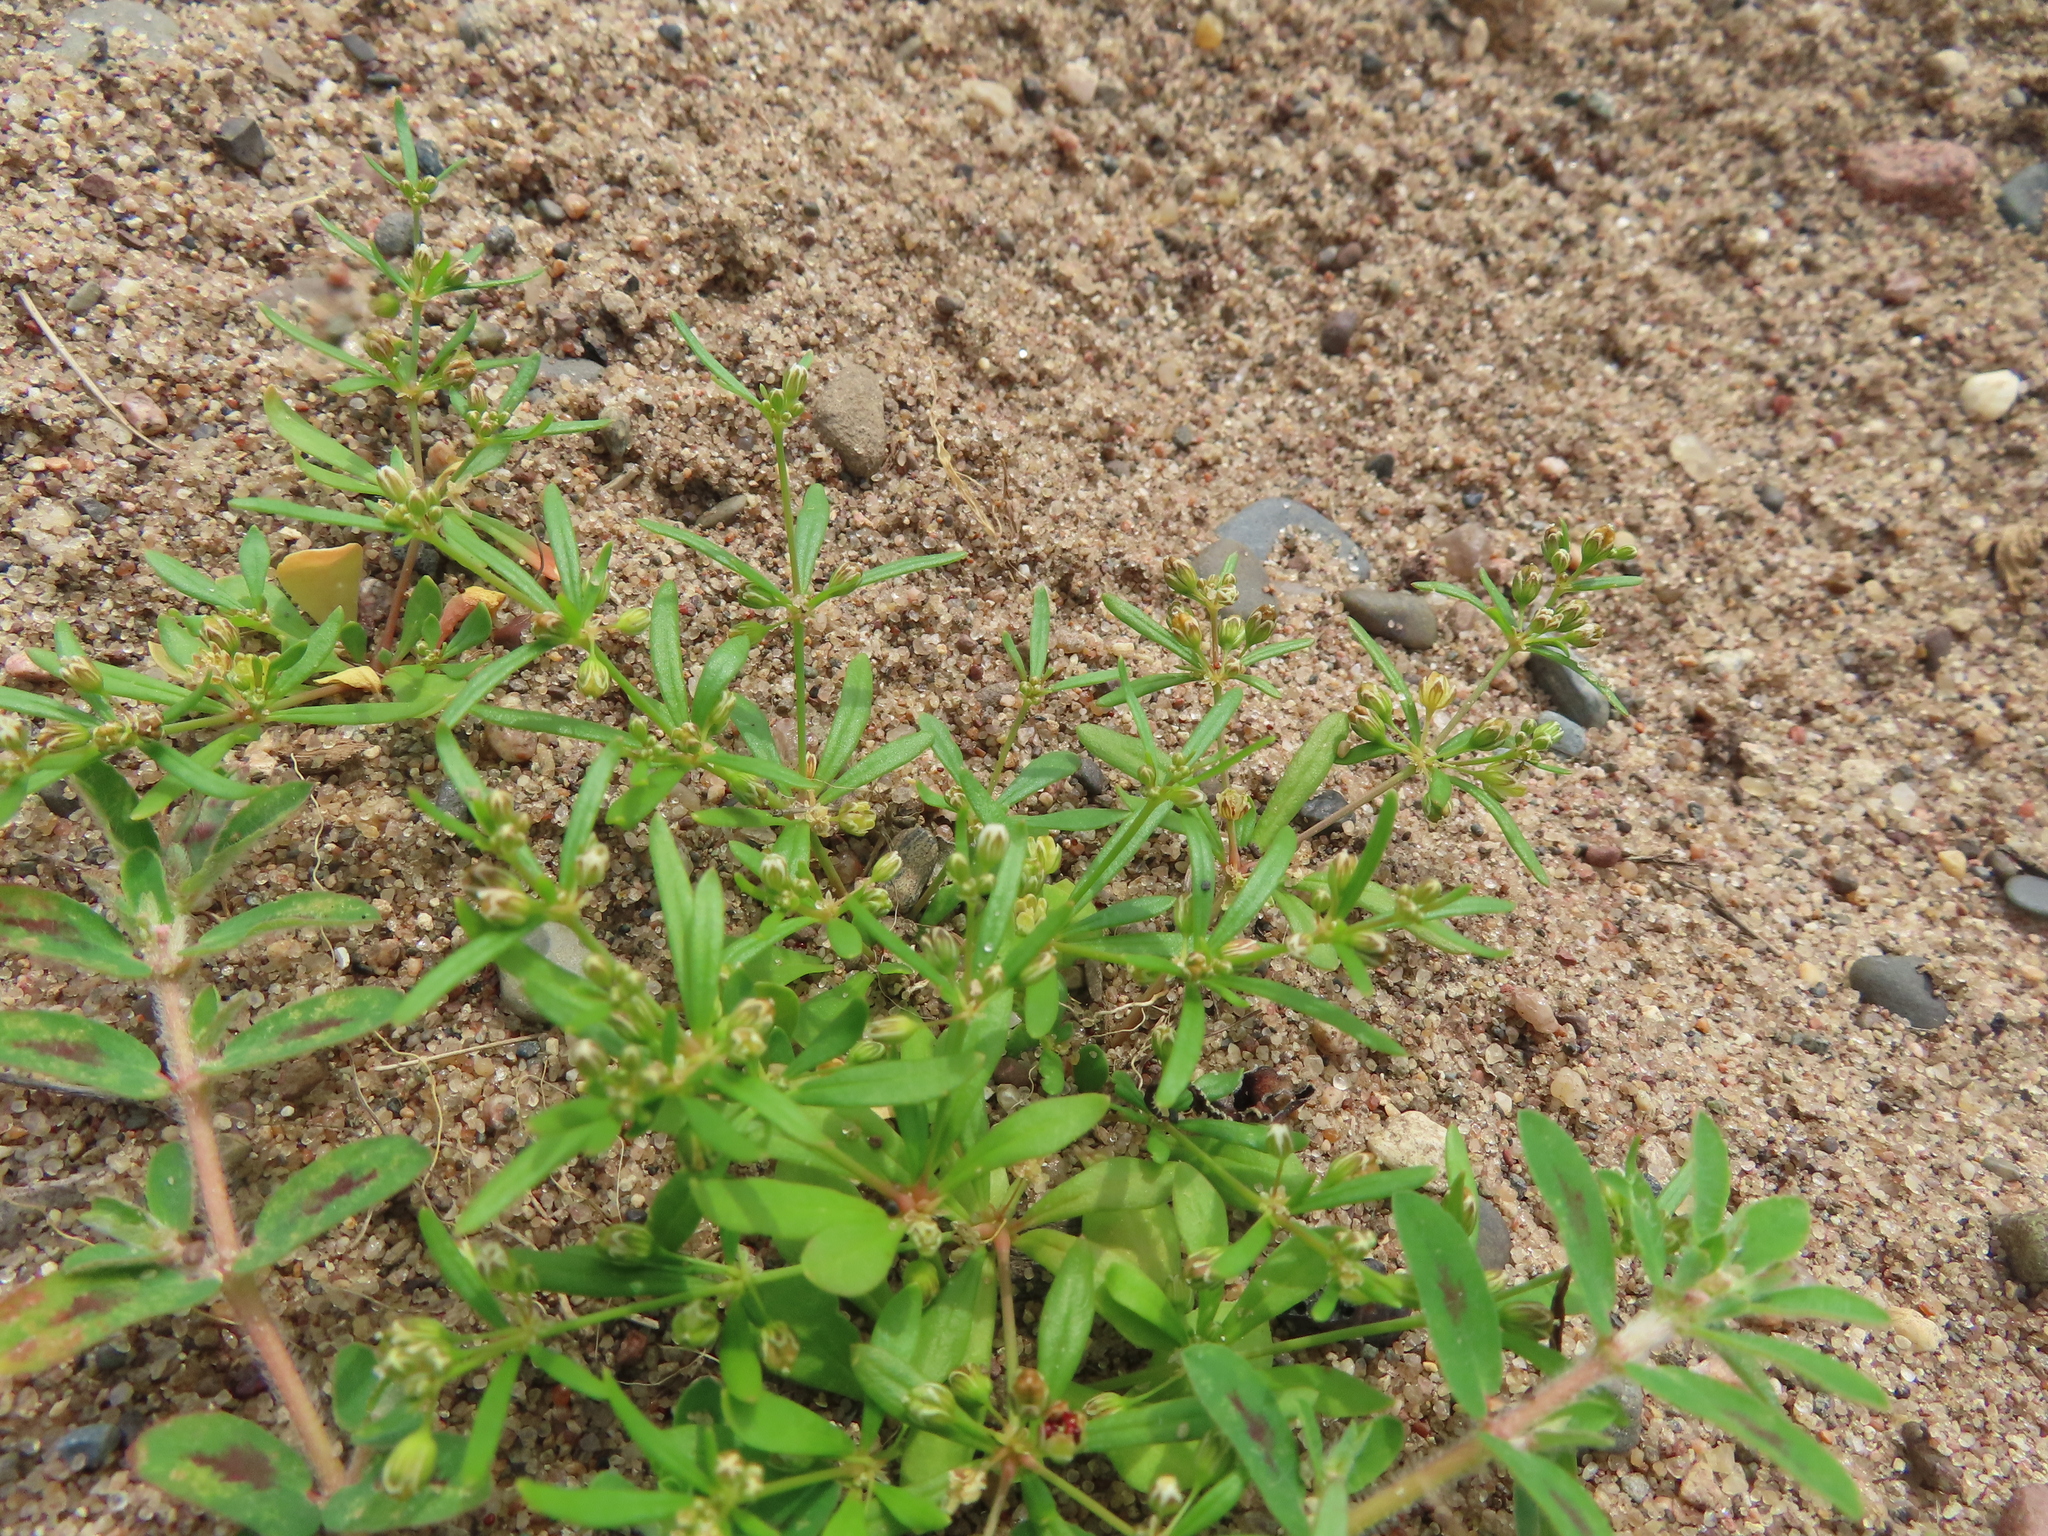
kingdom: Plantae
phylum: Tracheophyta
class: Magnoliopsida
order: Caryophyllales
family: Molluginaceae
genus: Mollugo
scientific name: Mollugo verticillata
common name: Green carpetweed
